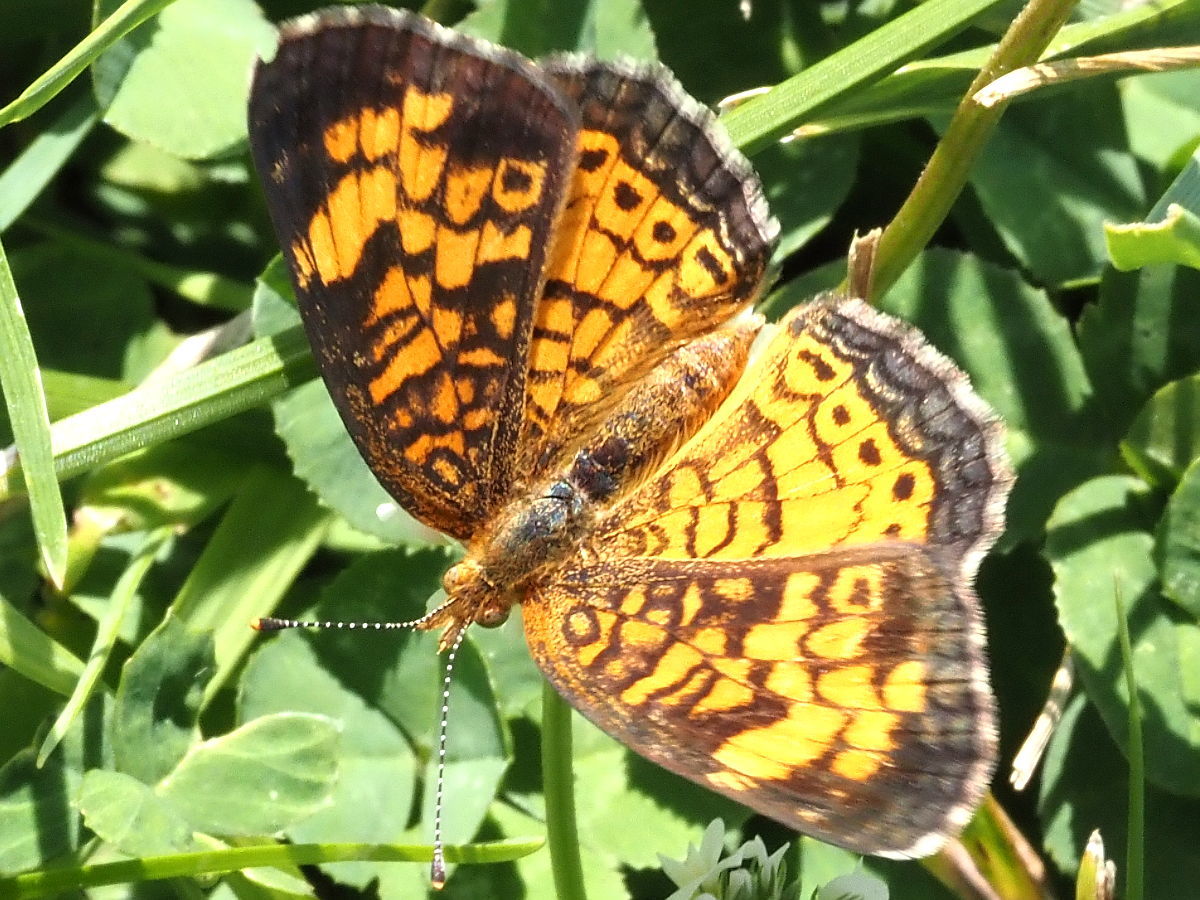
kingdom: Animalia
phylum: Arthropoda
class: Insecta
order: Lepidoptera
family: Nymphalidae
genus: Phyciodes
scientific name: Phyciodes tharos
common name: Pearl crescent
